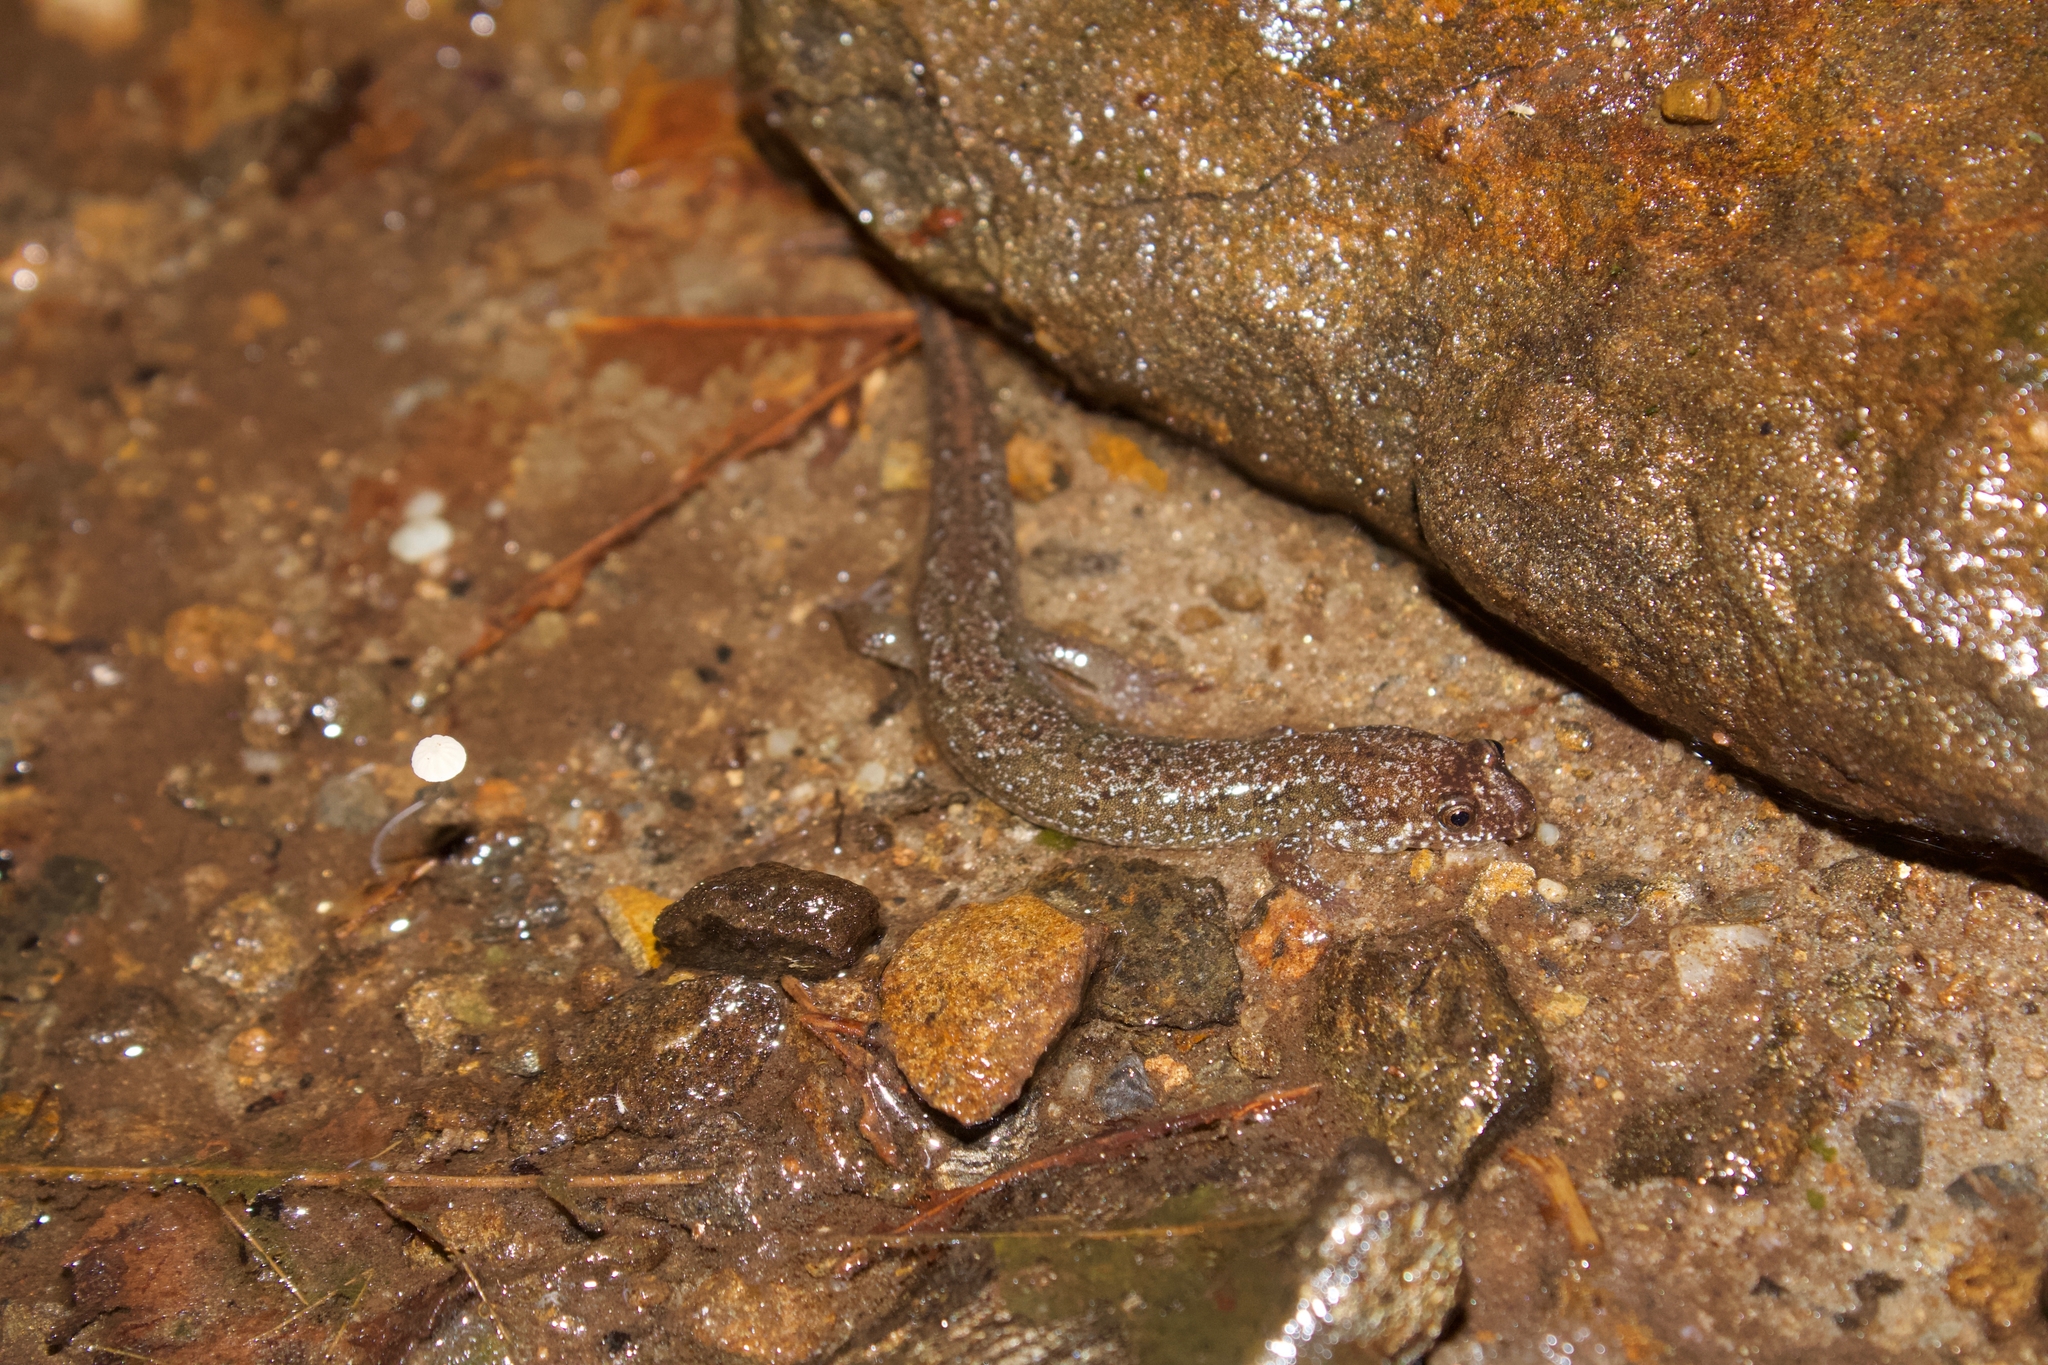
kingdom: Animalia
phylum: Chordata
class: Amphibia
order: Caudata
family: Plethodontidae
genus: Desmognathus
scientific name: Desmognathus santeetlah
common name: Santeetlah dusky salamander
